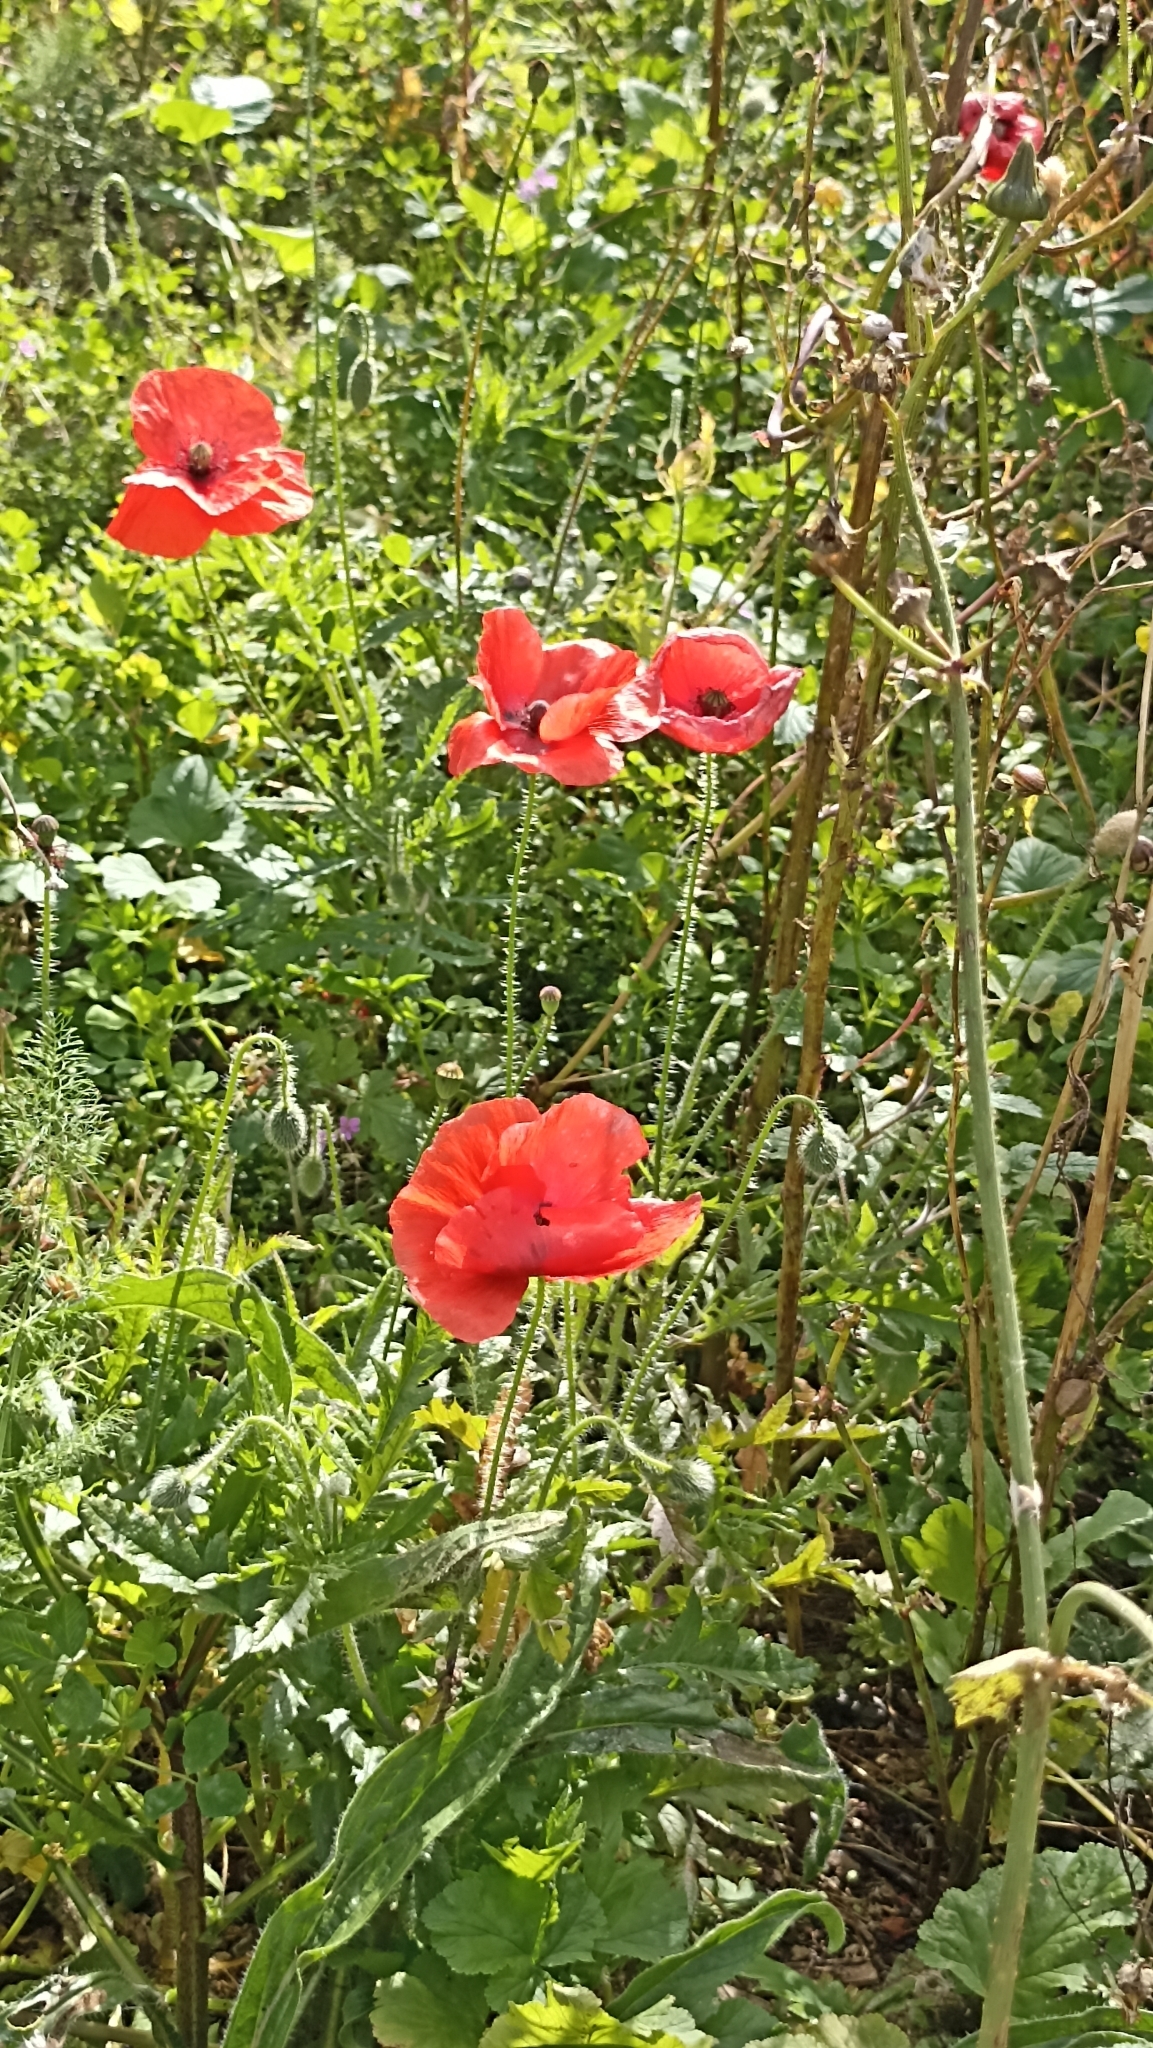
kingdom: Plantae
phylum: Tracheophyta
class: Magnoliopsida
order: Ranunculales
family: Papaveraceae
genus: Papaver
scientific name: Papaver rhoeas
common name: Corn poppy
